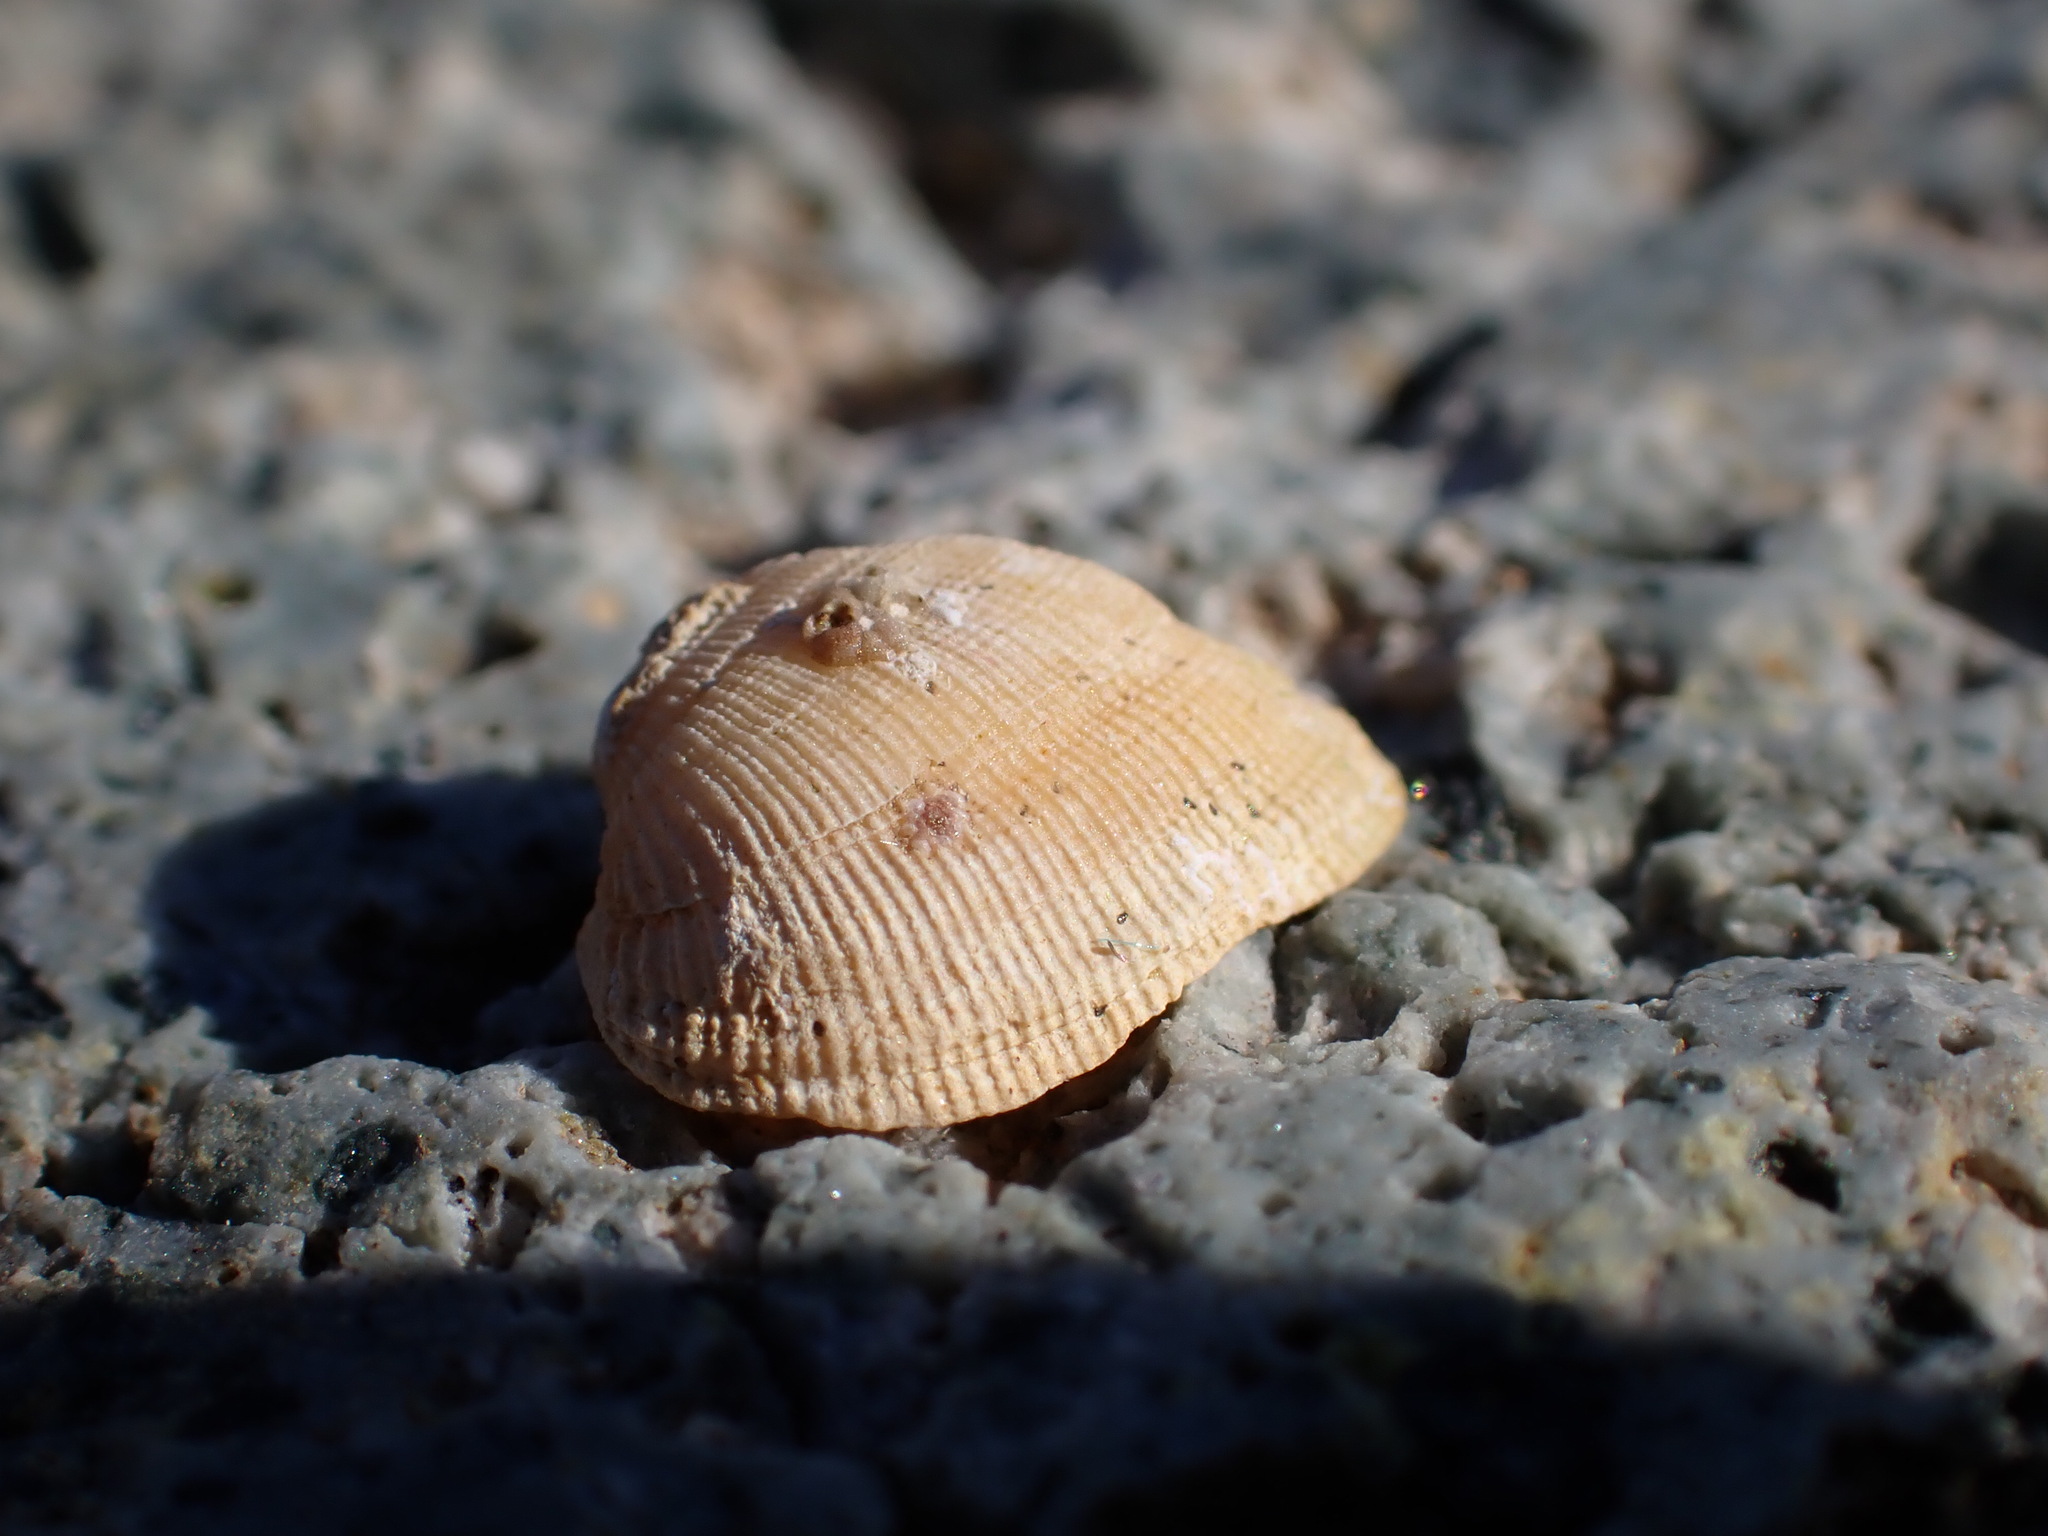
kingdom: Animalia
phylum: Mollusca
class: Bivalvia
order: Arcida
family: Noetiidae
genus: Striarca
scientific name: Striarca lactea
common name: Milky-white ark
